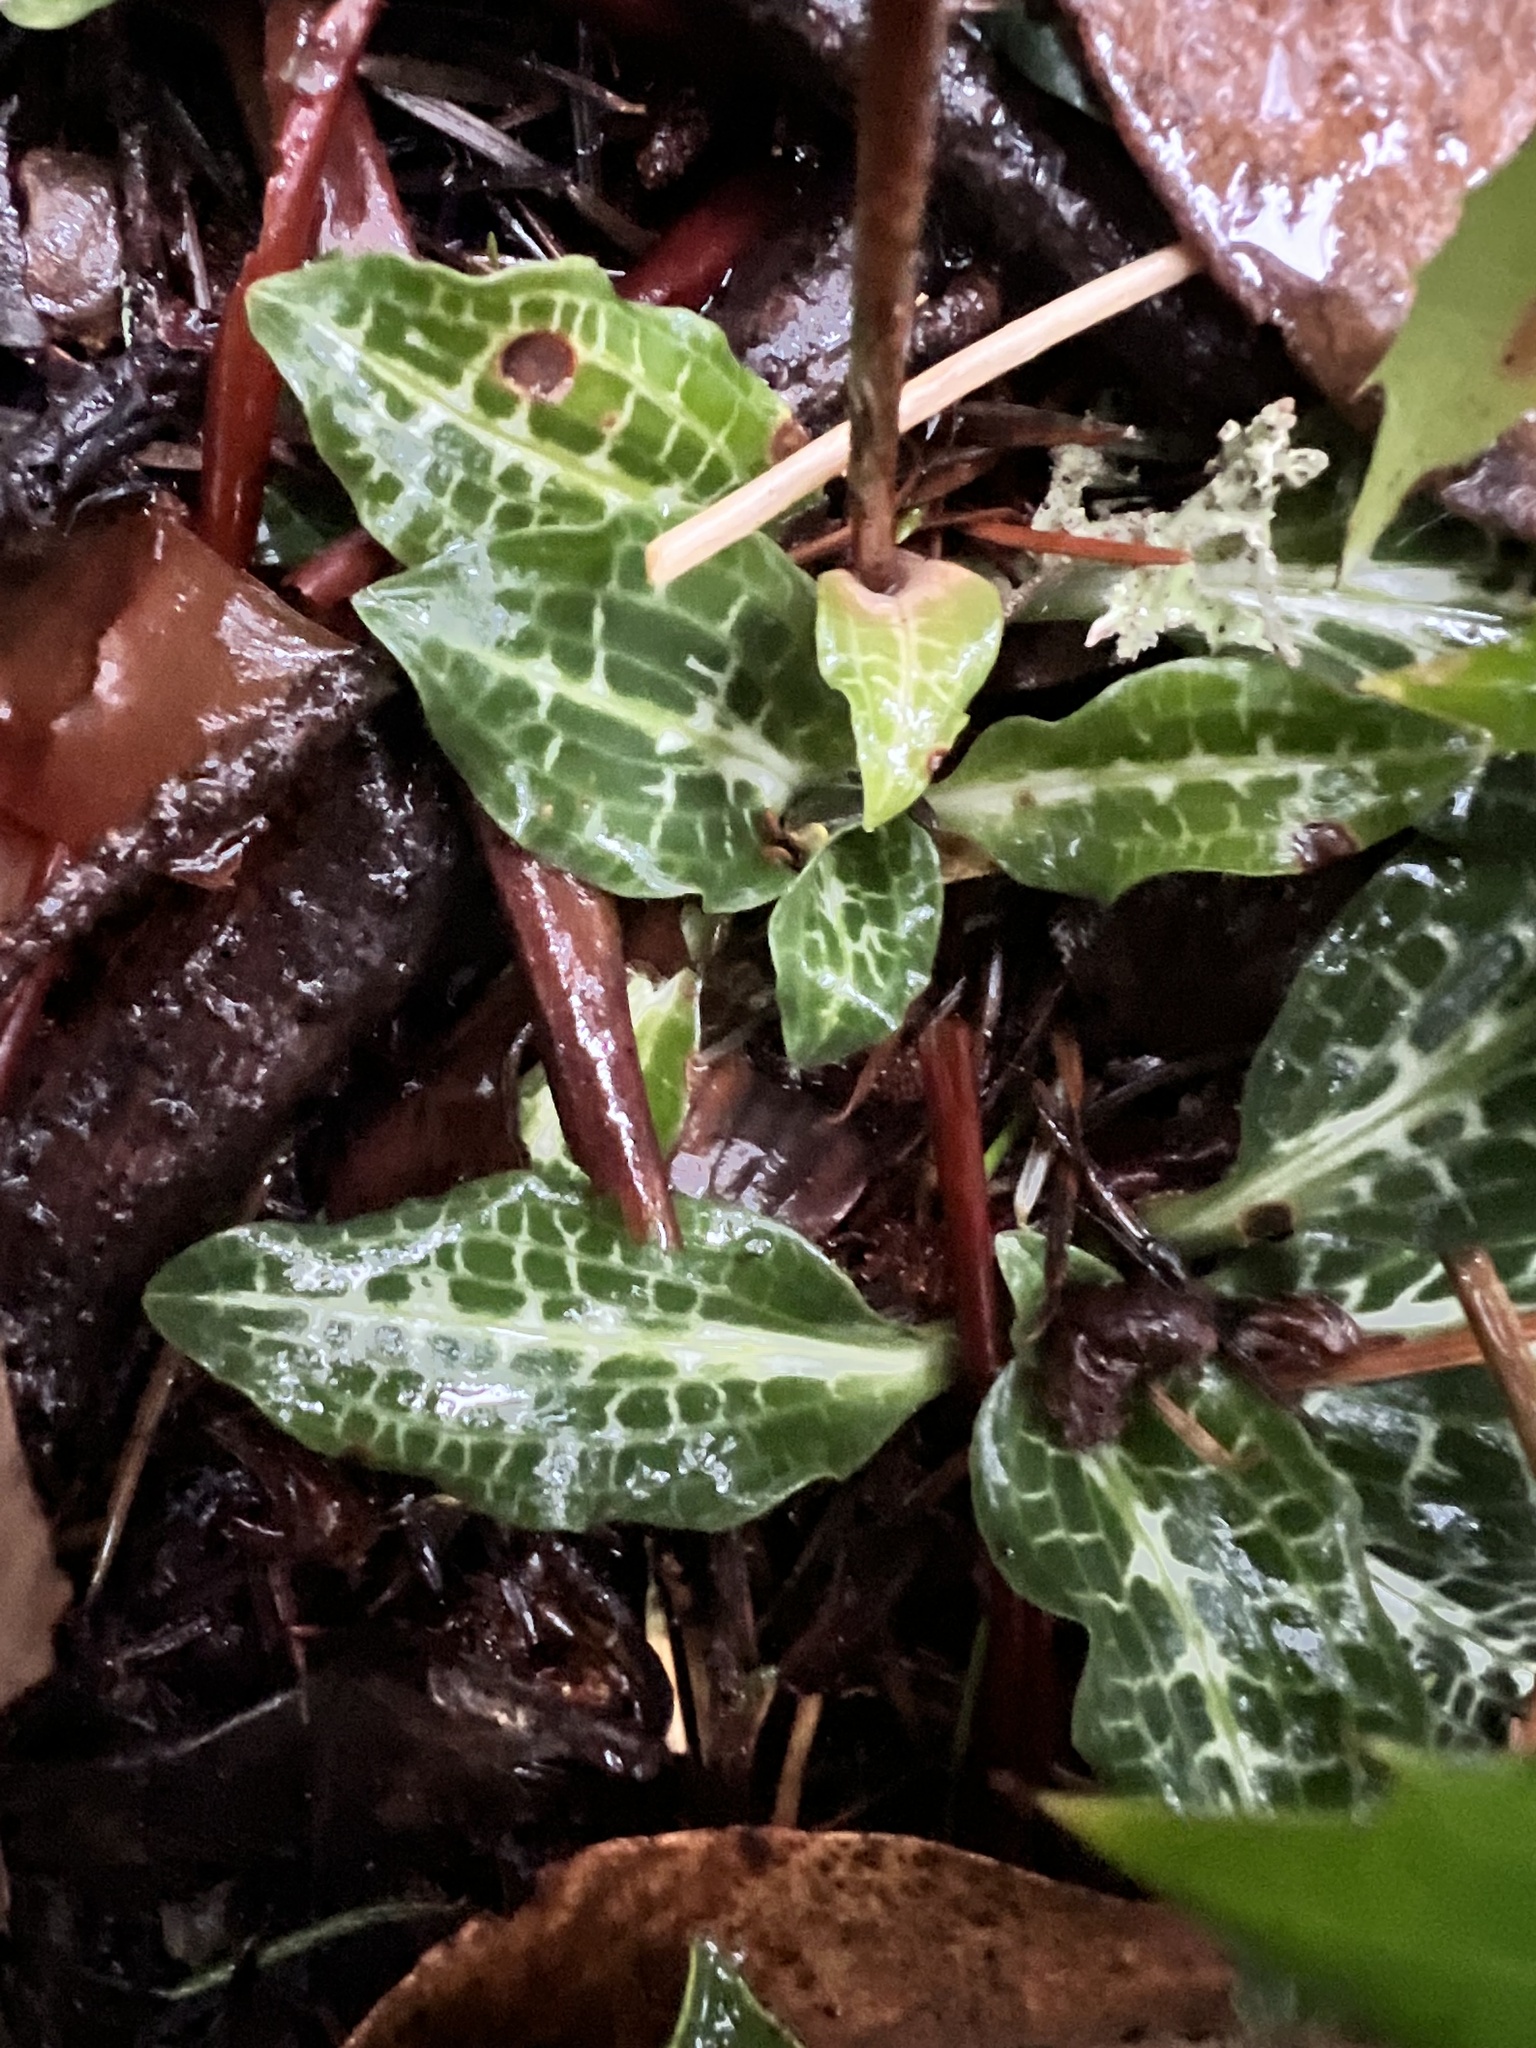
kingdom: Plantae
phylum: Tracheophyta
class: Liliopsida
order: Asparagales
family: Orchidaceae
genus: Goodyera
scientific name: Goodyera oblongifolia
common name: Giant rattlesnake-plantain
